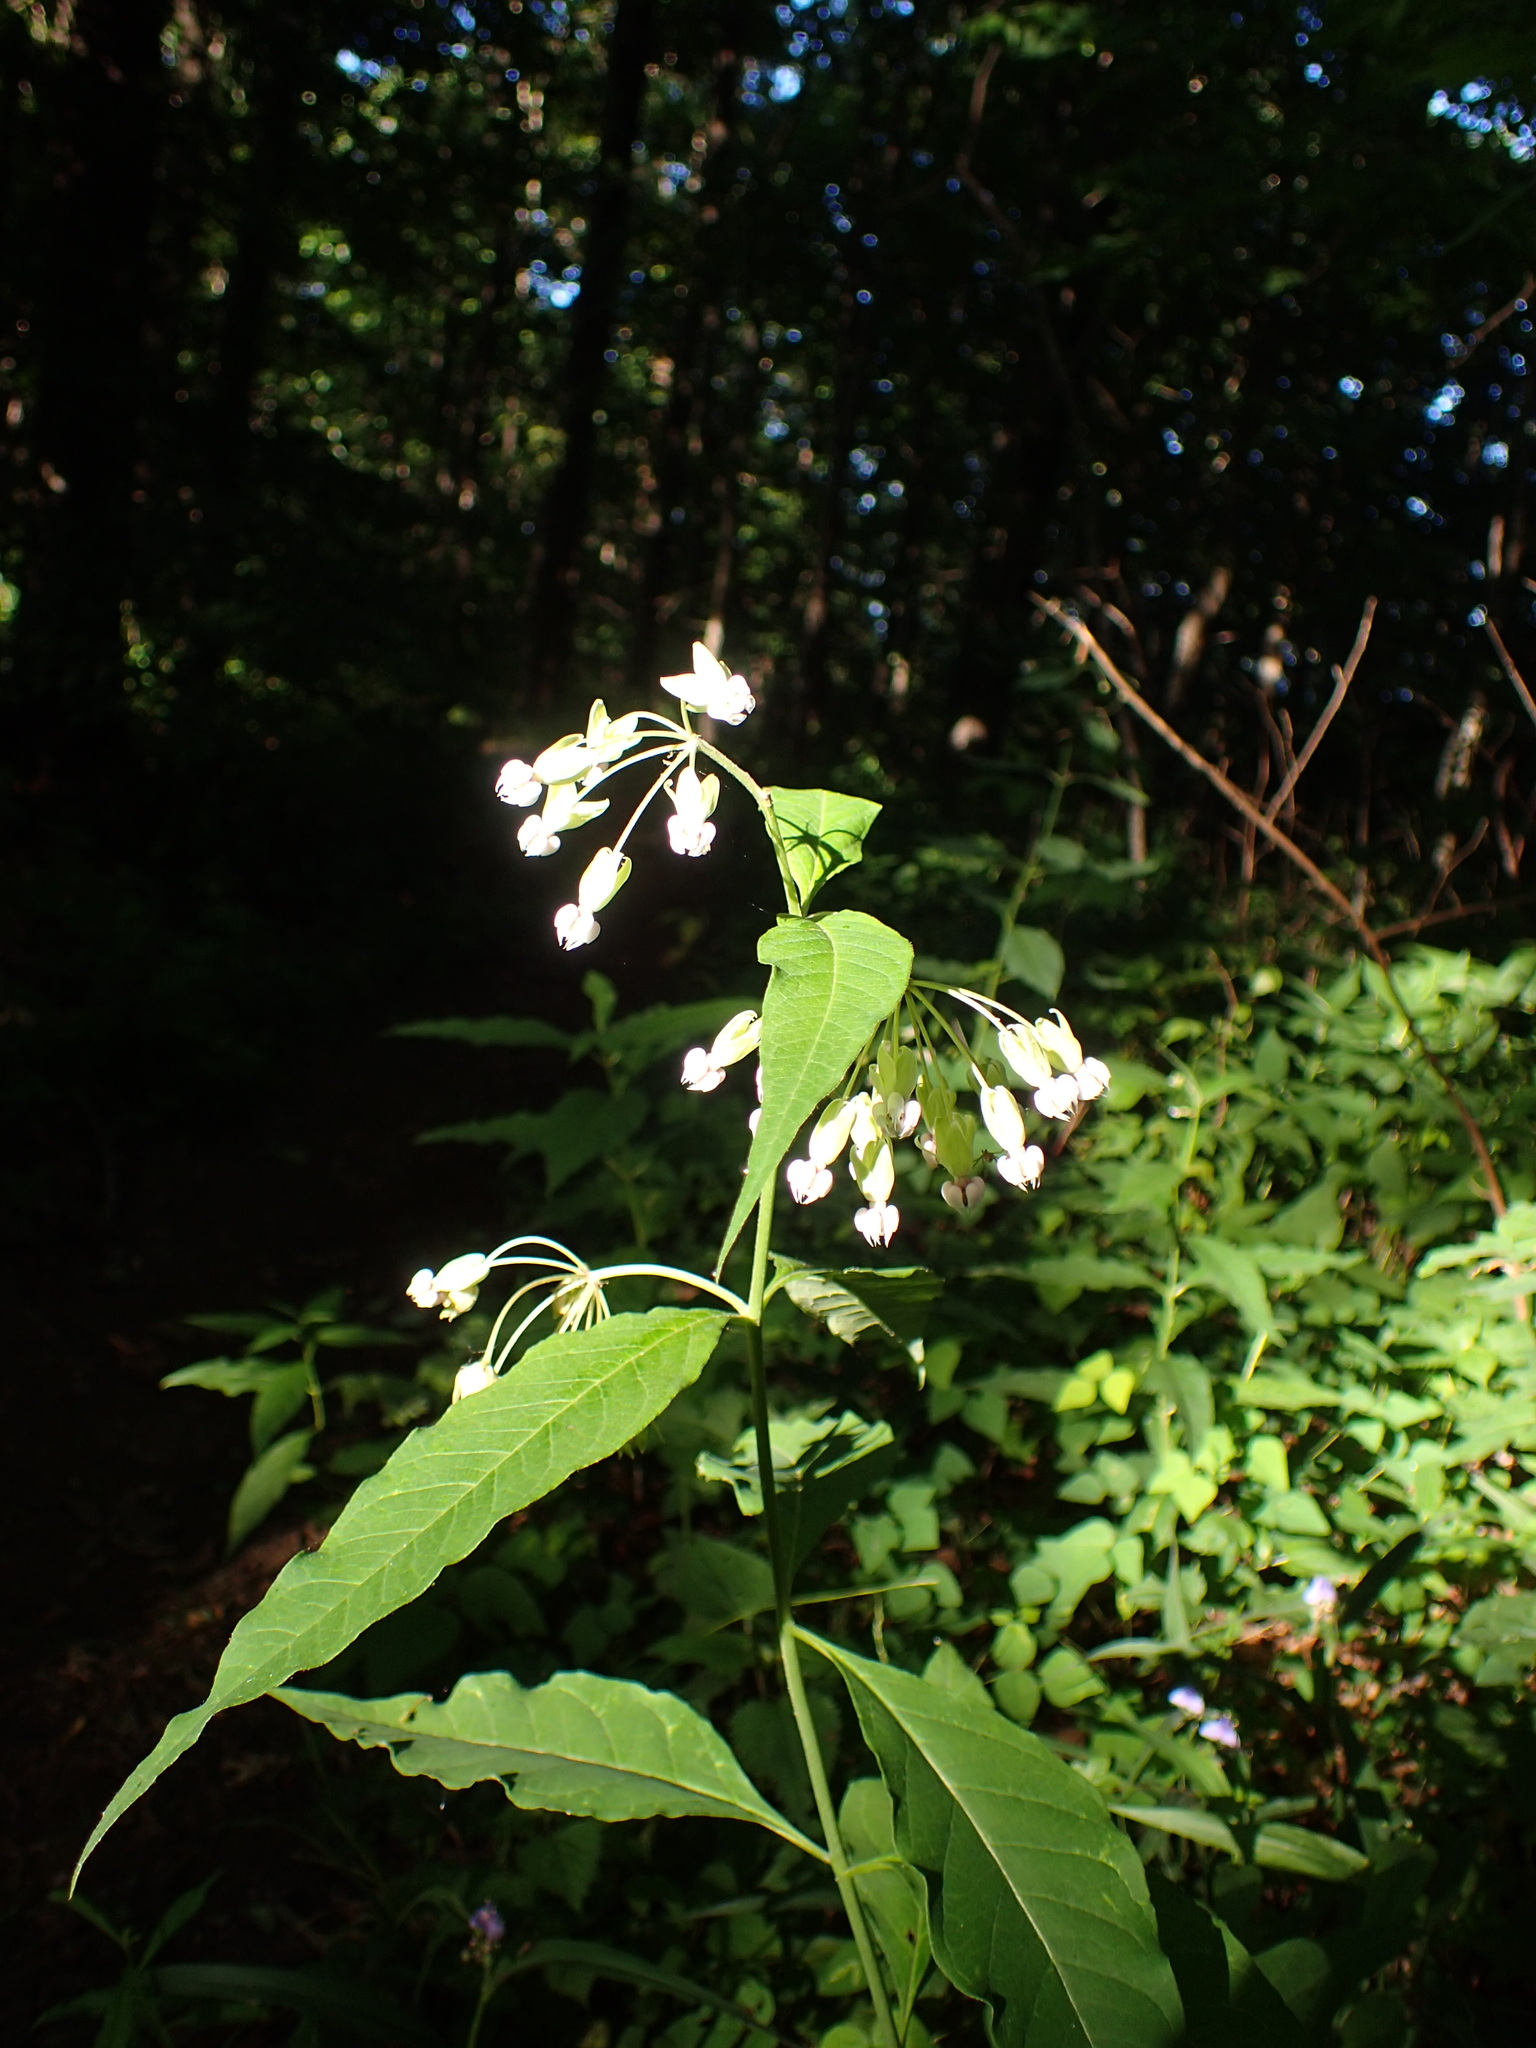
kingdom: Plantae
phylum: Tracheophyta
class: Magnoliopsida
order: Gentianales
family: Apocynaceae
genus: Asclepias
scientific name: Asclepias exaltata
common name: Poke milkweed
